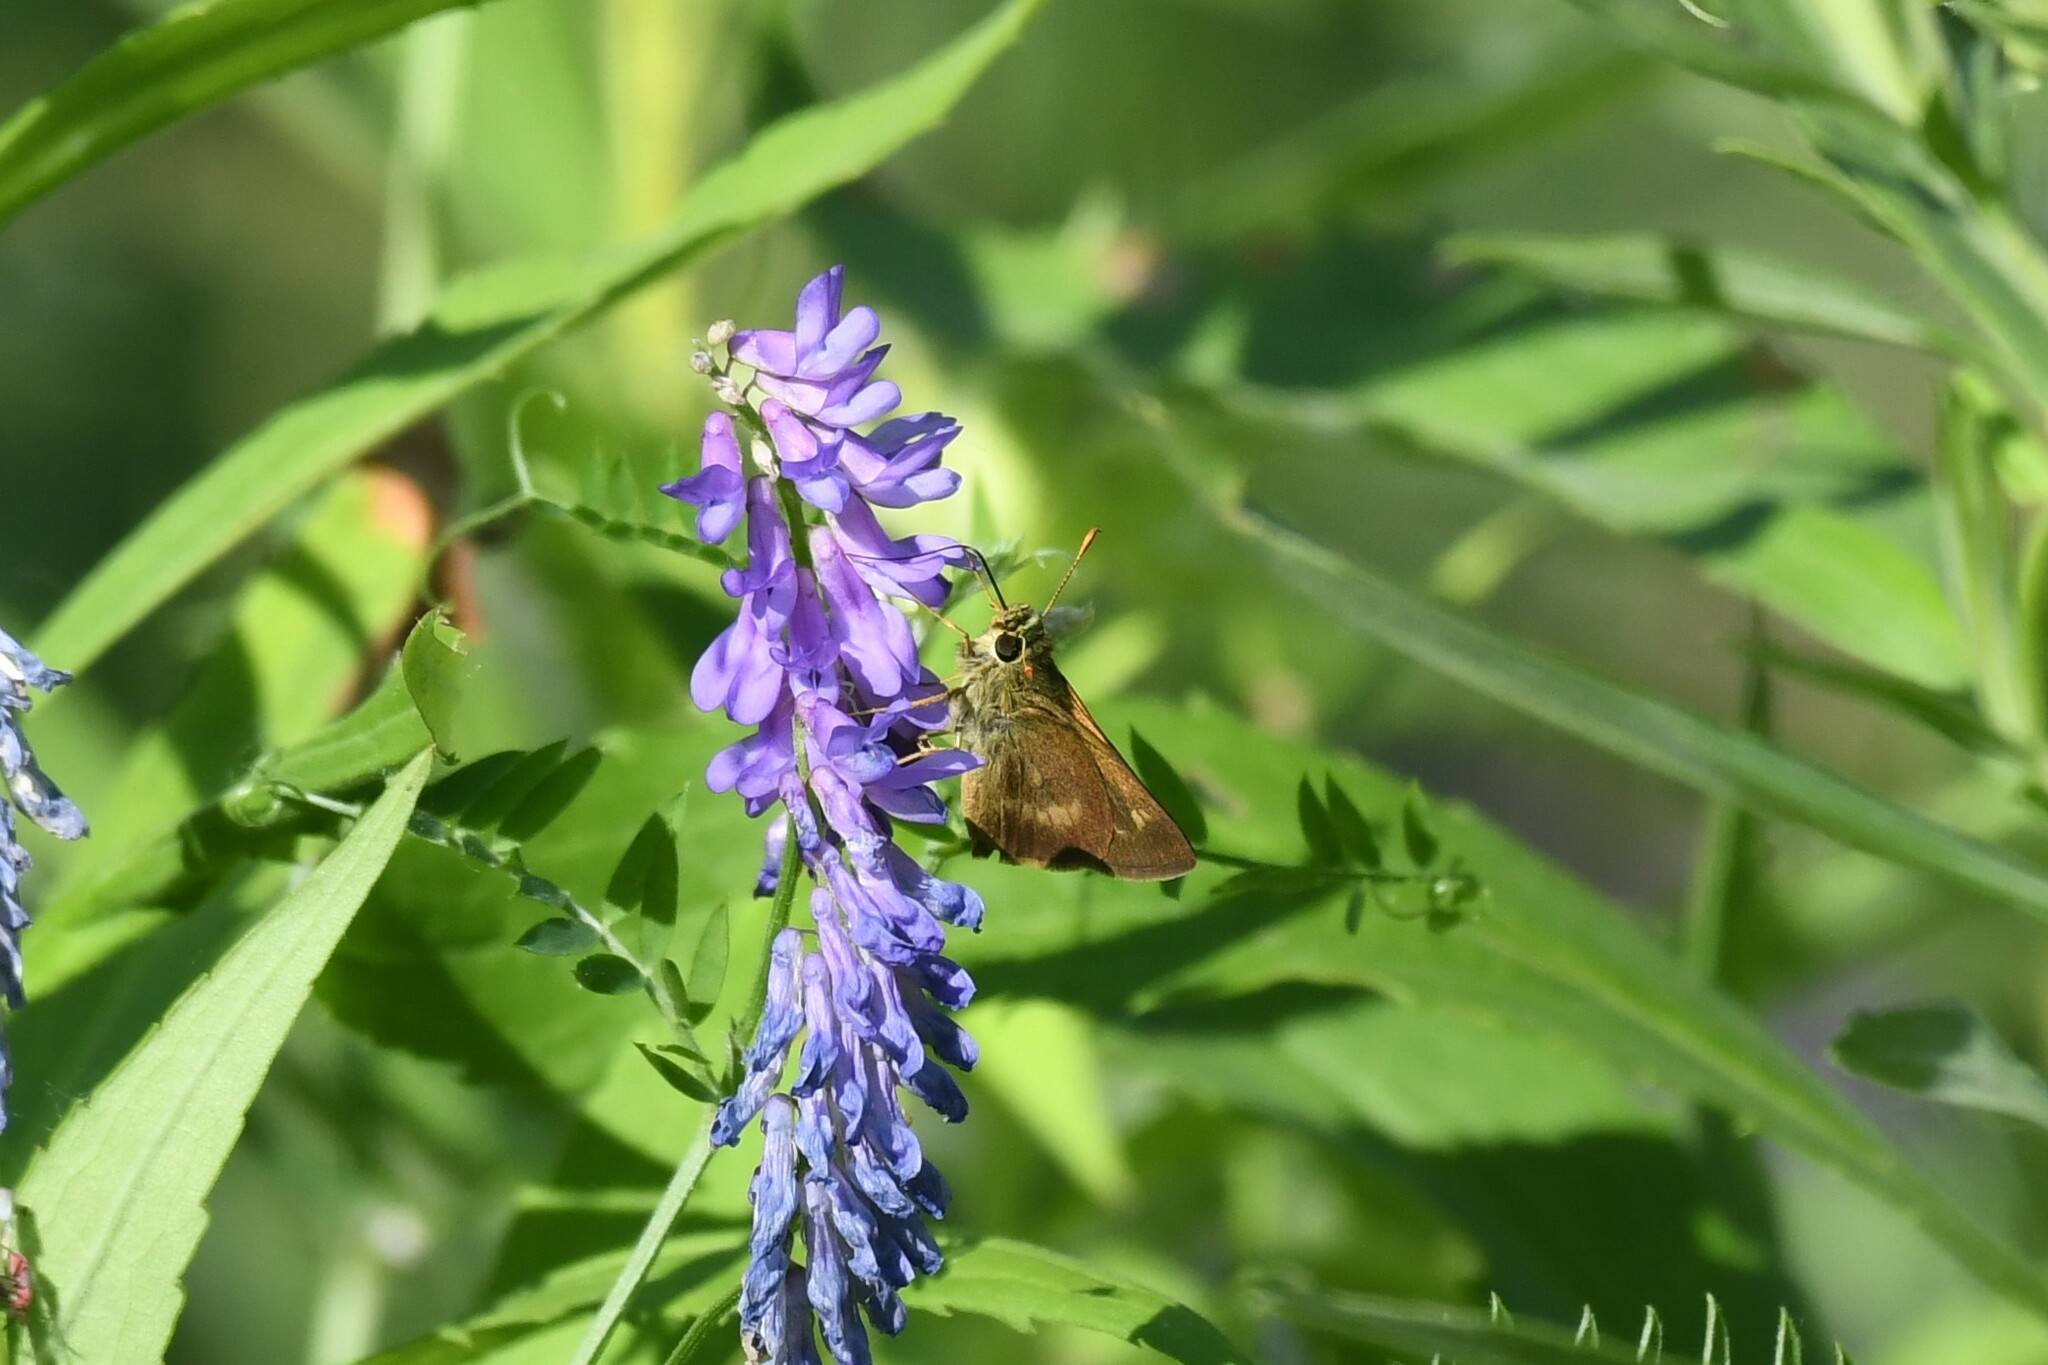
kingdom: Animalia
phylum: Arthropoda
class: Insecta
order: Lepidoptera
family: Hesperiidae
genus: Polites
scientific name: Polites egeremet
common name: Northern broken-dash
